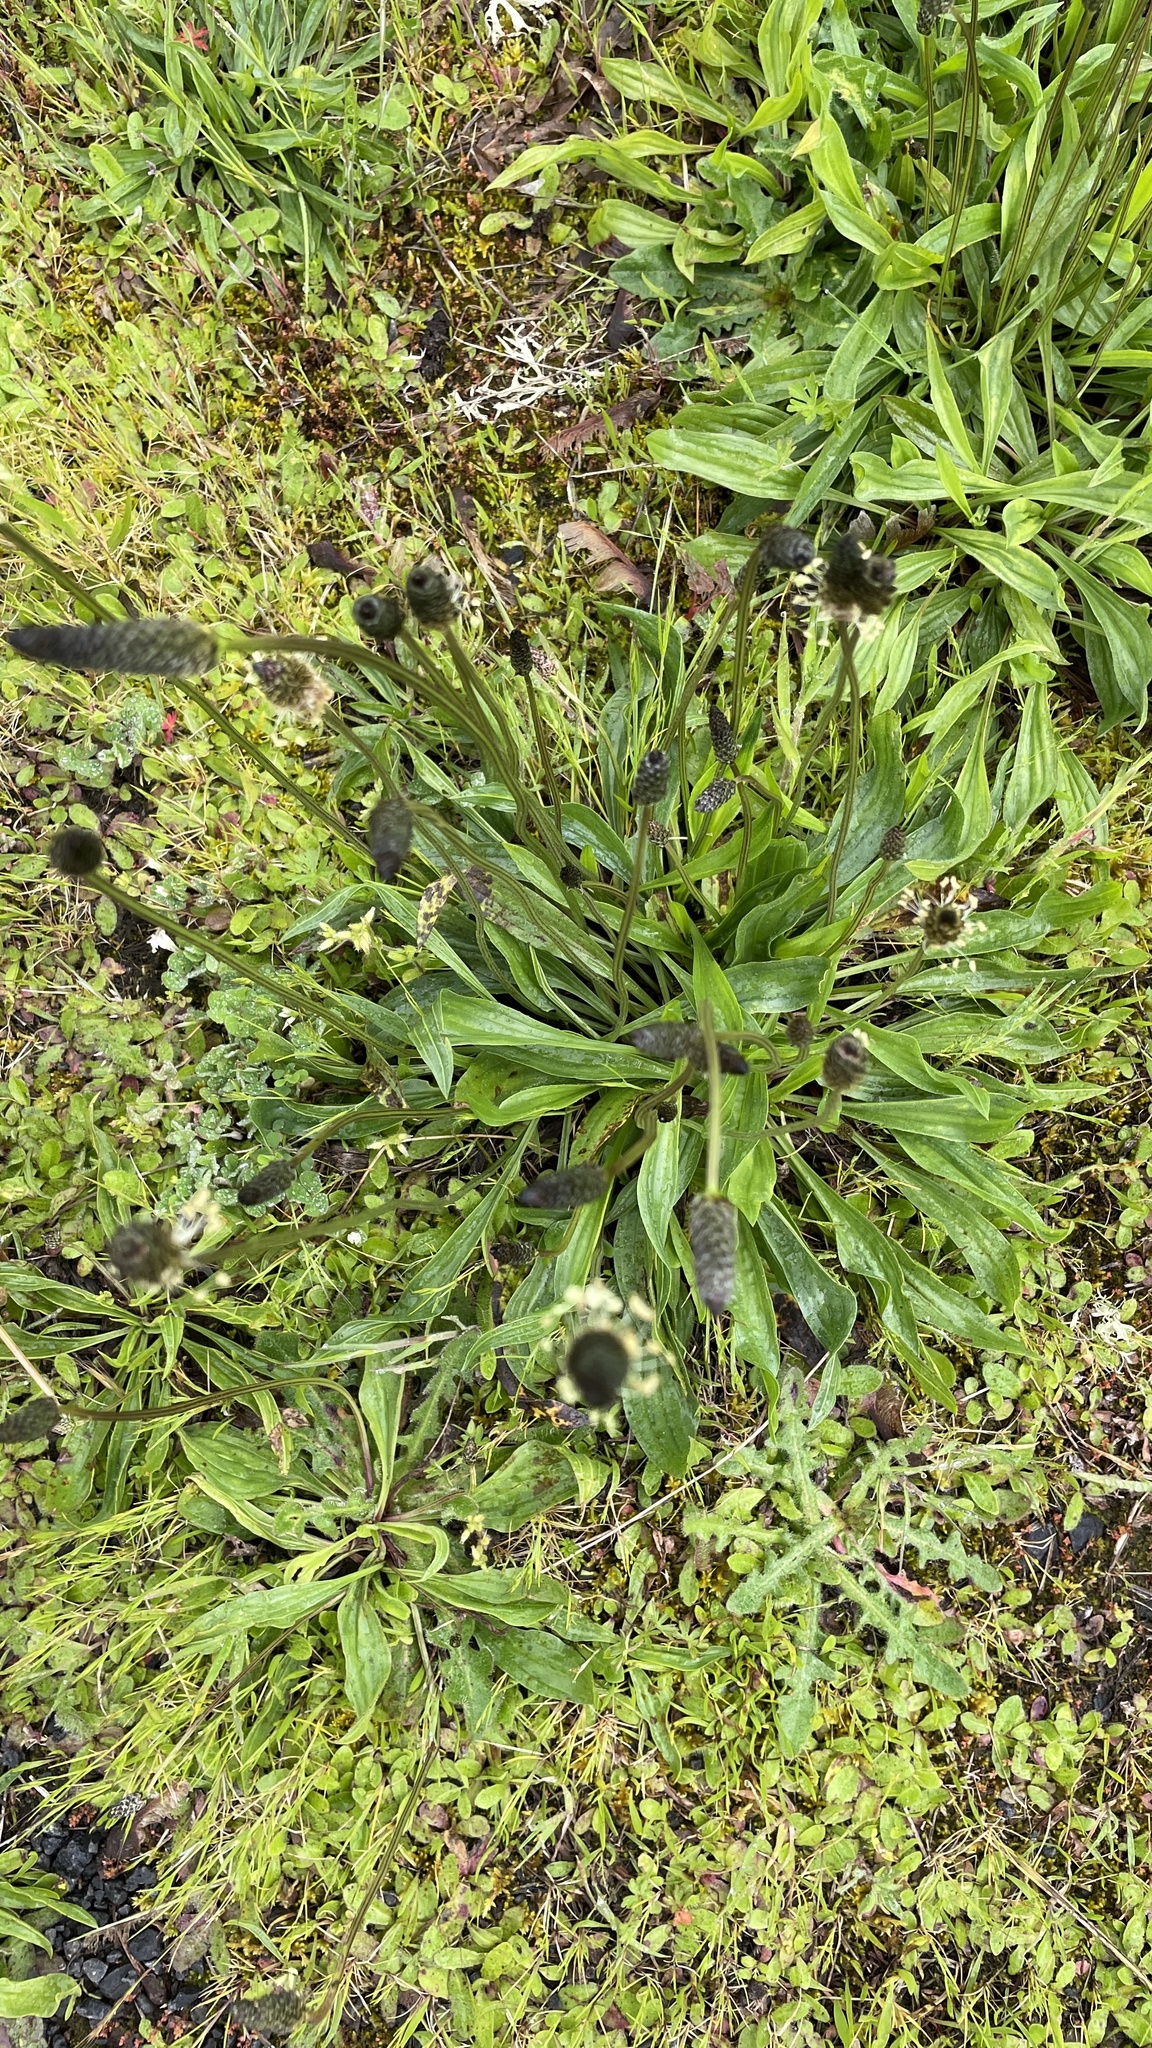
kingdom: Plantae
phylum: Tracheophyta
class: Magnoliopsida
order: Lamiales
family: Plantaginaceae
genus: Plantago
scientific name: Plantago lanceolata
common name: Ribwort plantain
